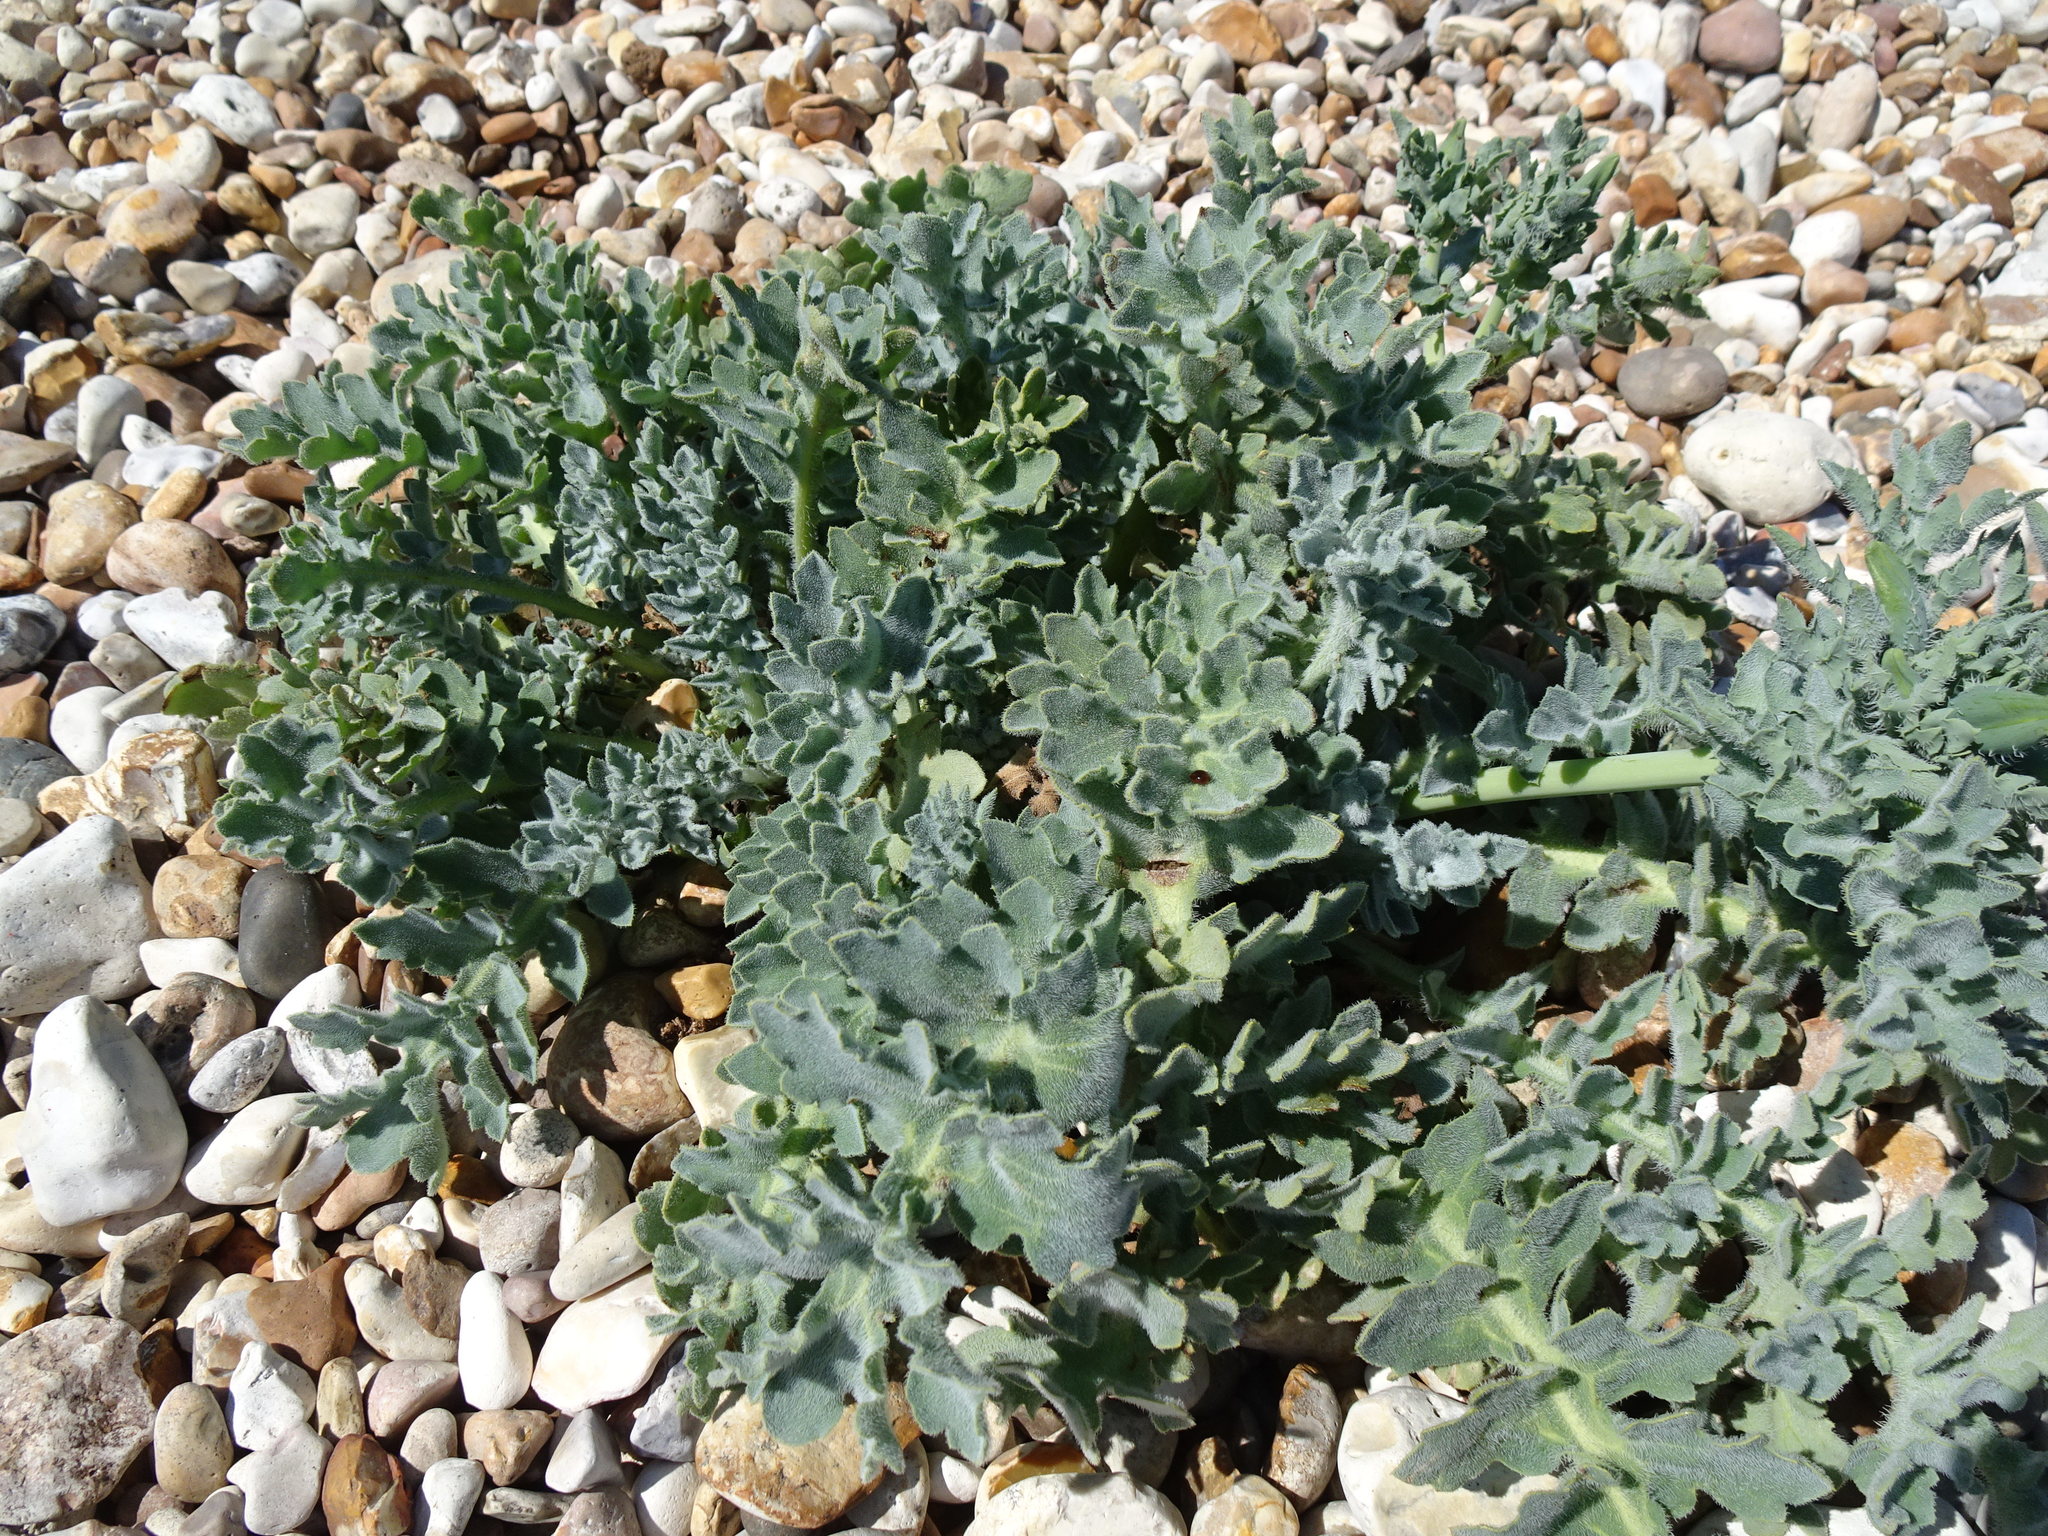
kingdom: Plantae
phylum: Tracheophyta
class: Magnoliopsida
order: Ranunculales
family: Papaveraceae
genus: Glaucium
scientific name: Glaucium flavum
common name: Yellow horned-poppy
